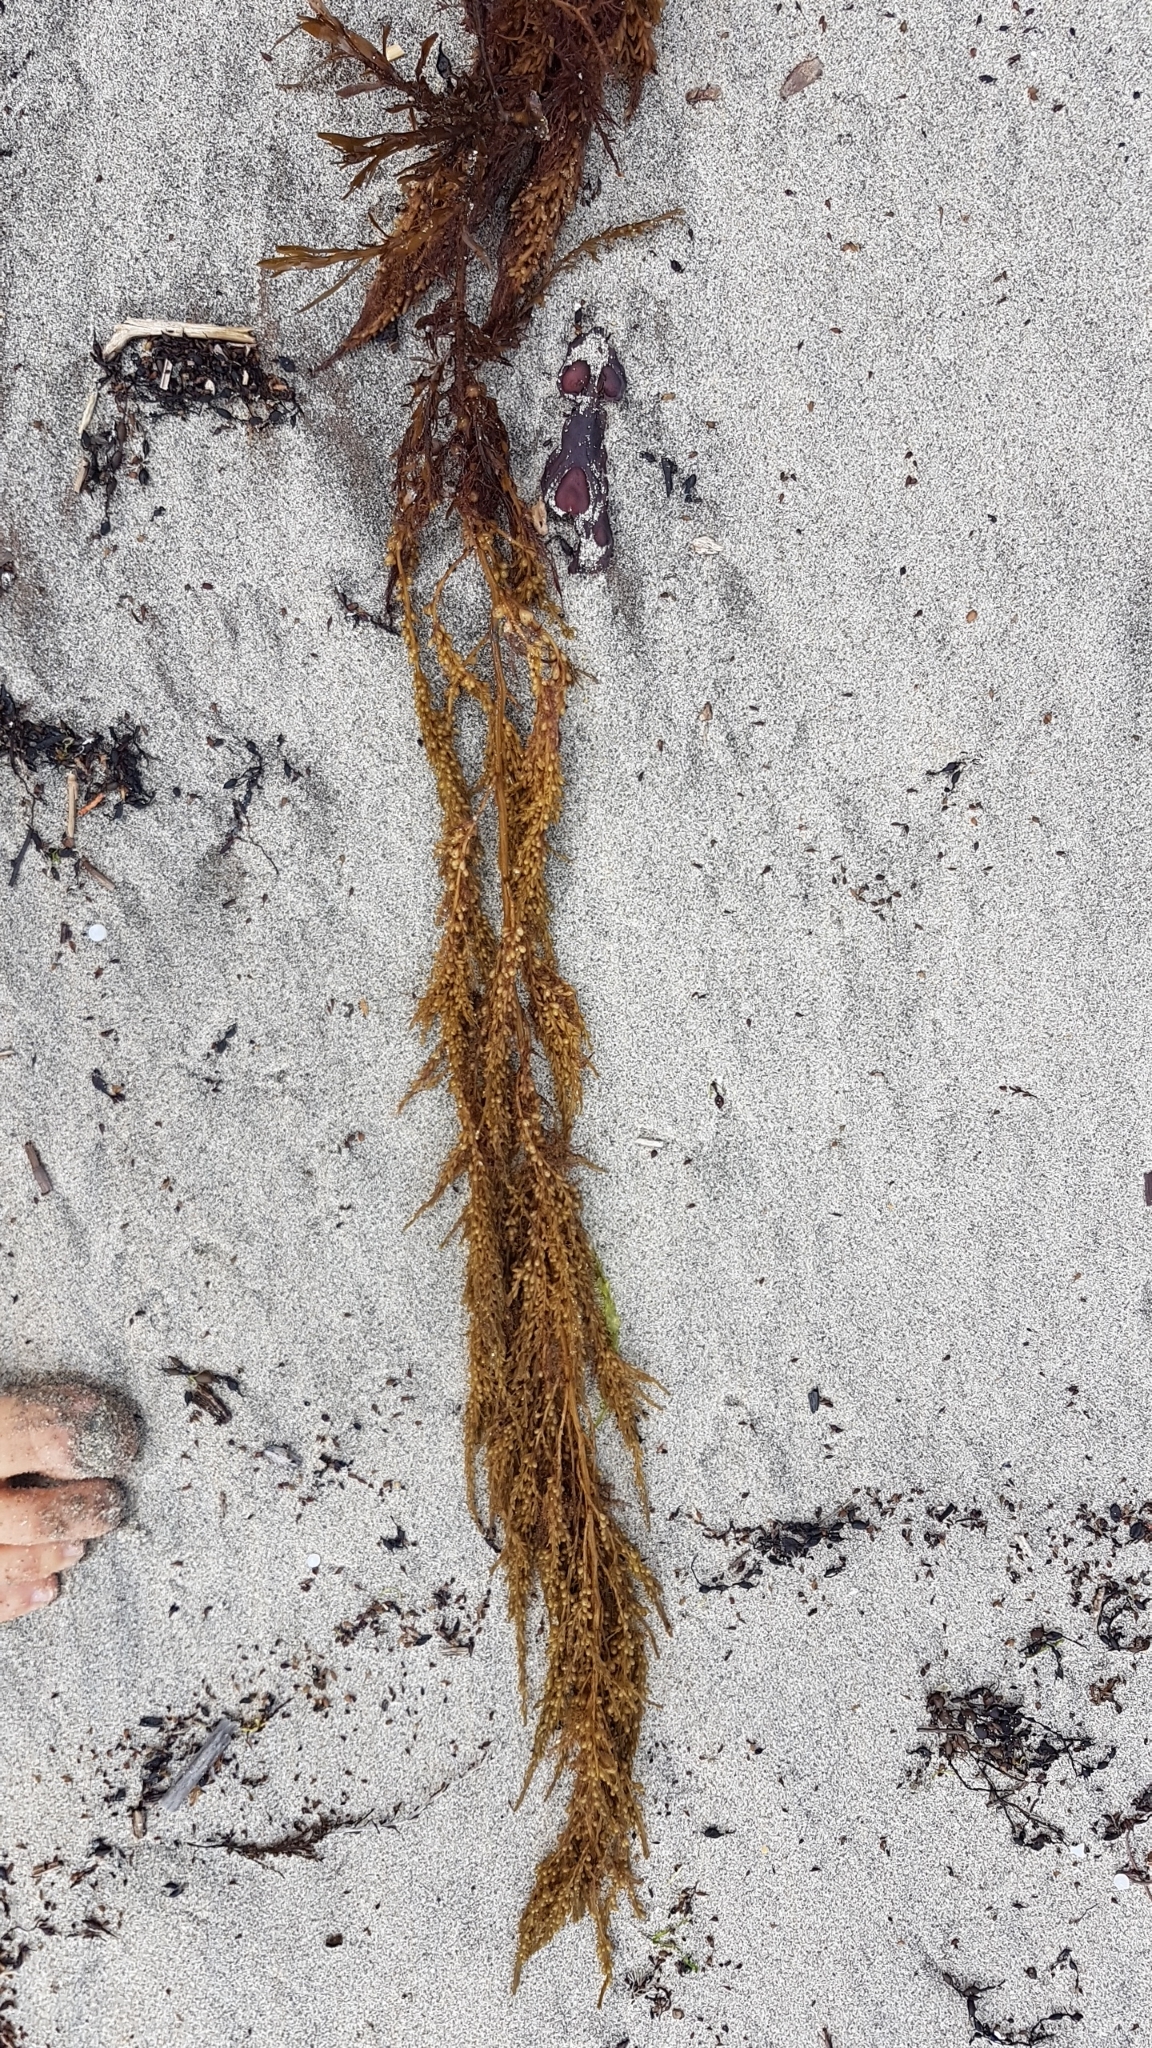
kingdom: Chromista
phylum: Ochrophyta
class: Phaeophyceae
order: Fucales
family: Sargassaceae
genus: Sargassum
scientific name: Sargassum muticum
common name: Japweed
